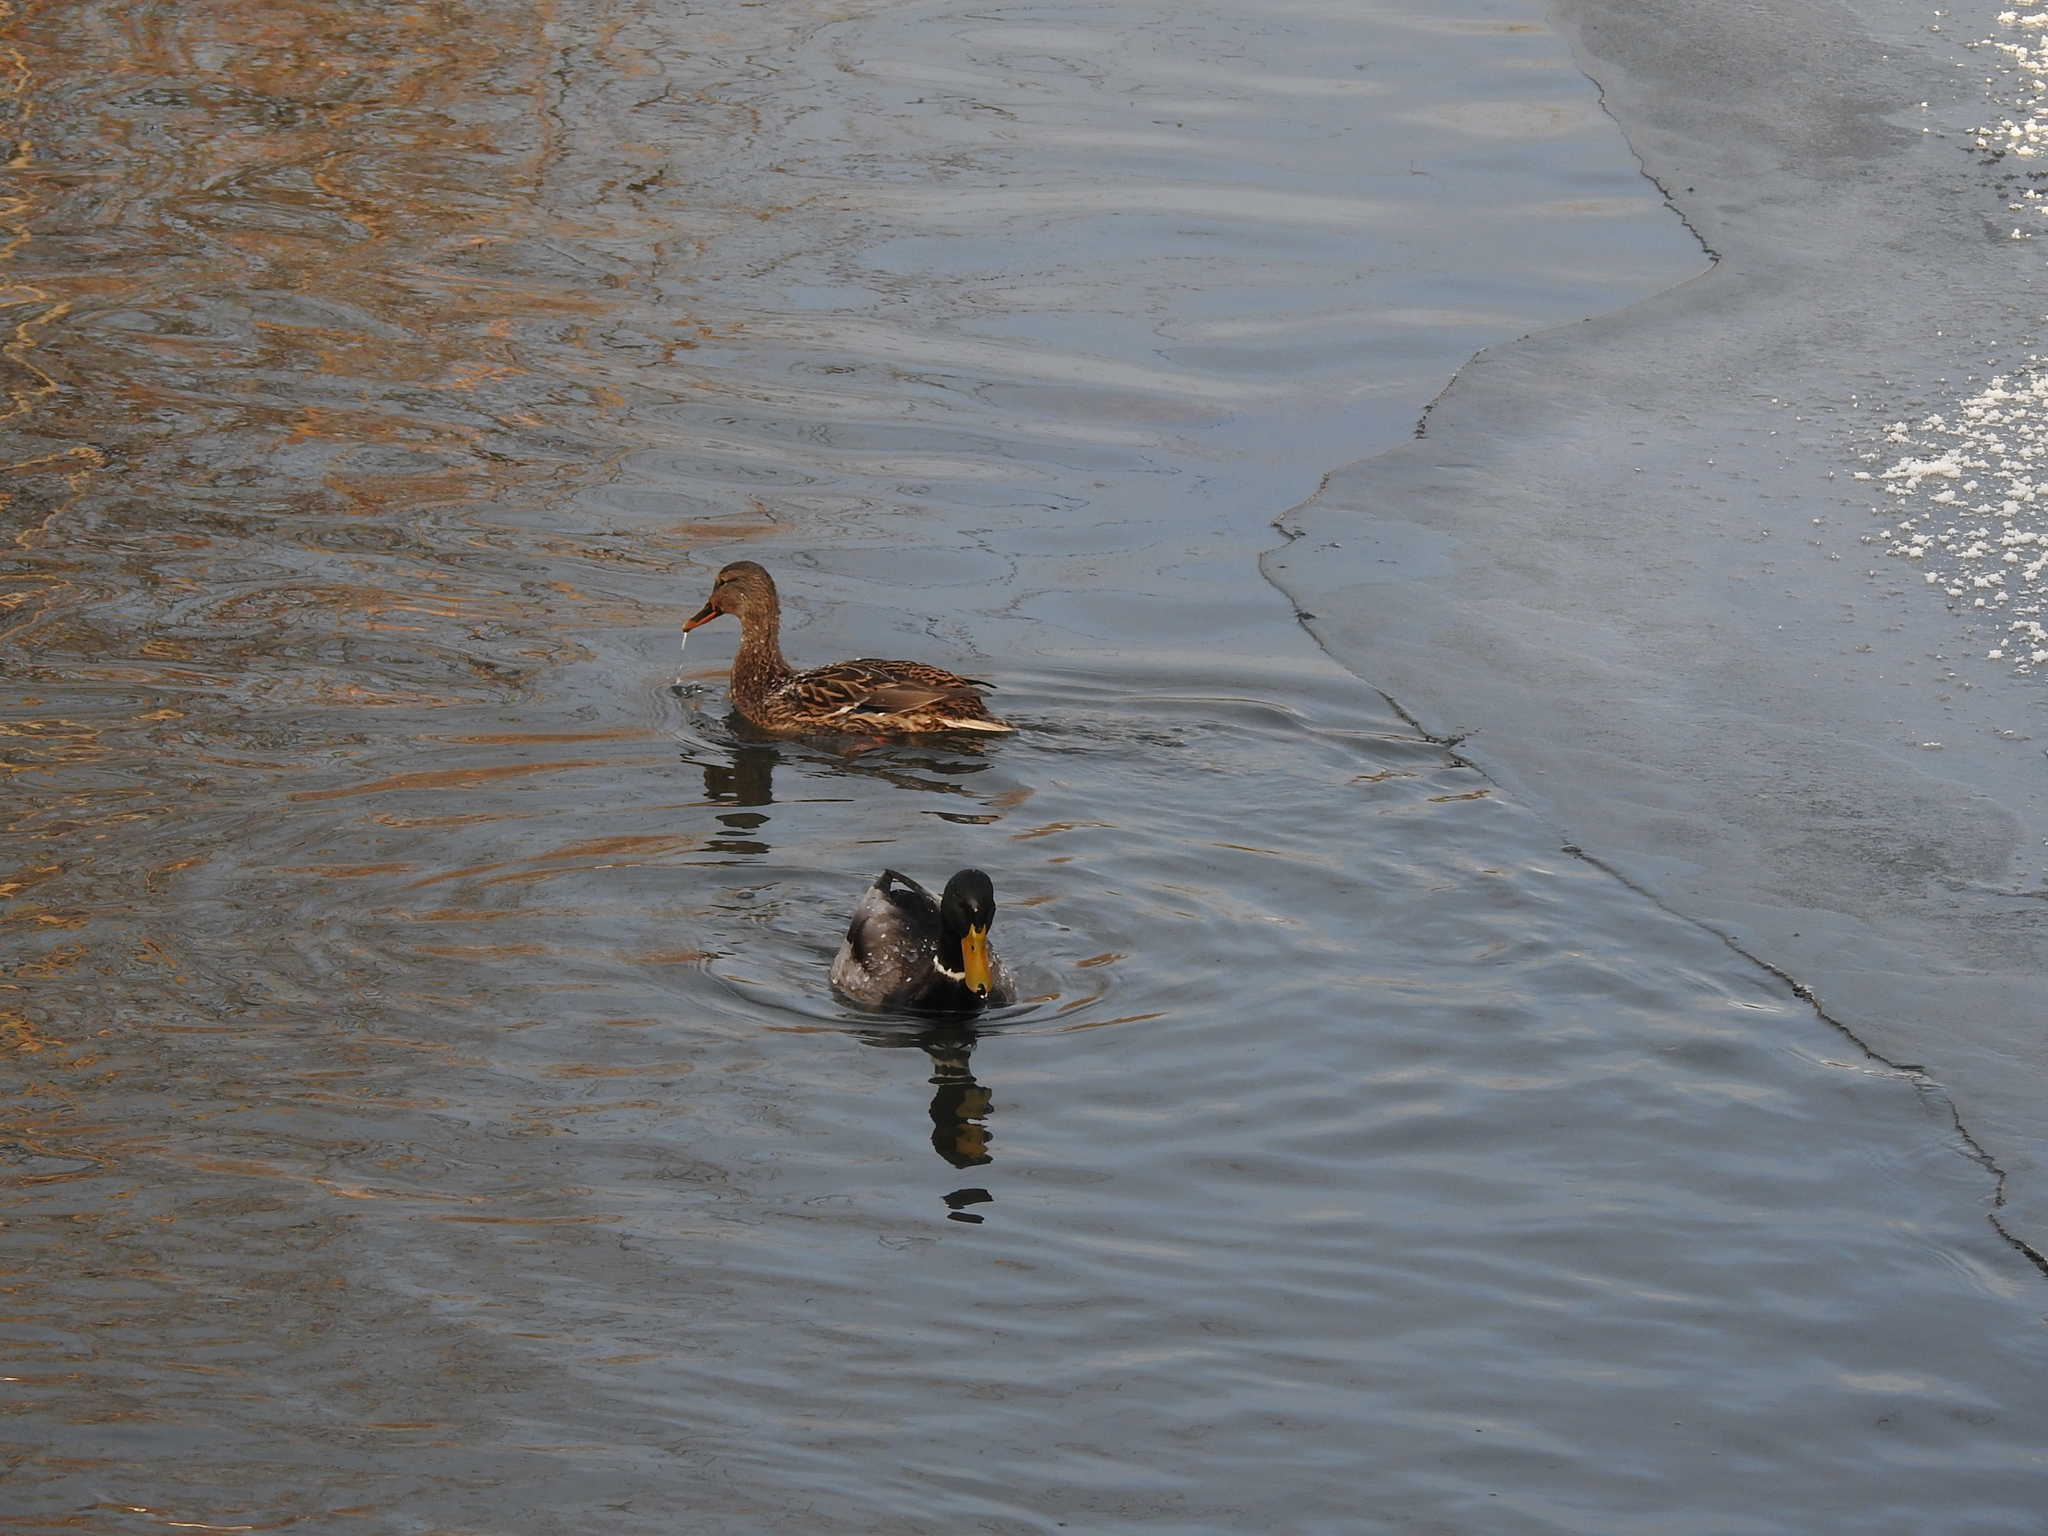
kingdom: Animalia
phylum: Chordata
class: Aves
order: Anseriformes
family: Anatidae
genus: Anas
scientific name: Anas platyrhynchos
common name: Mallard
